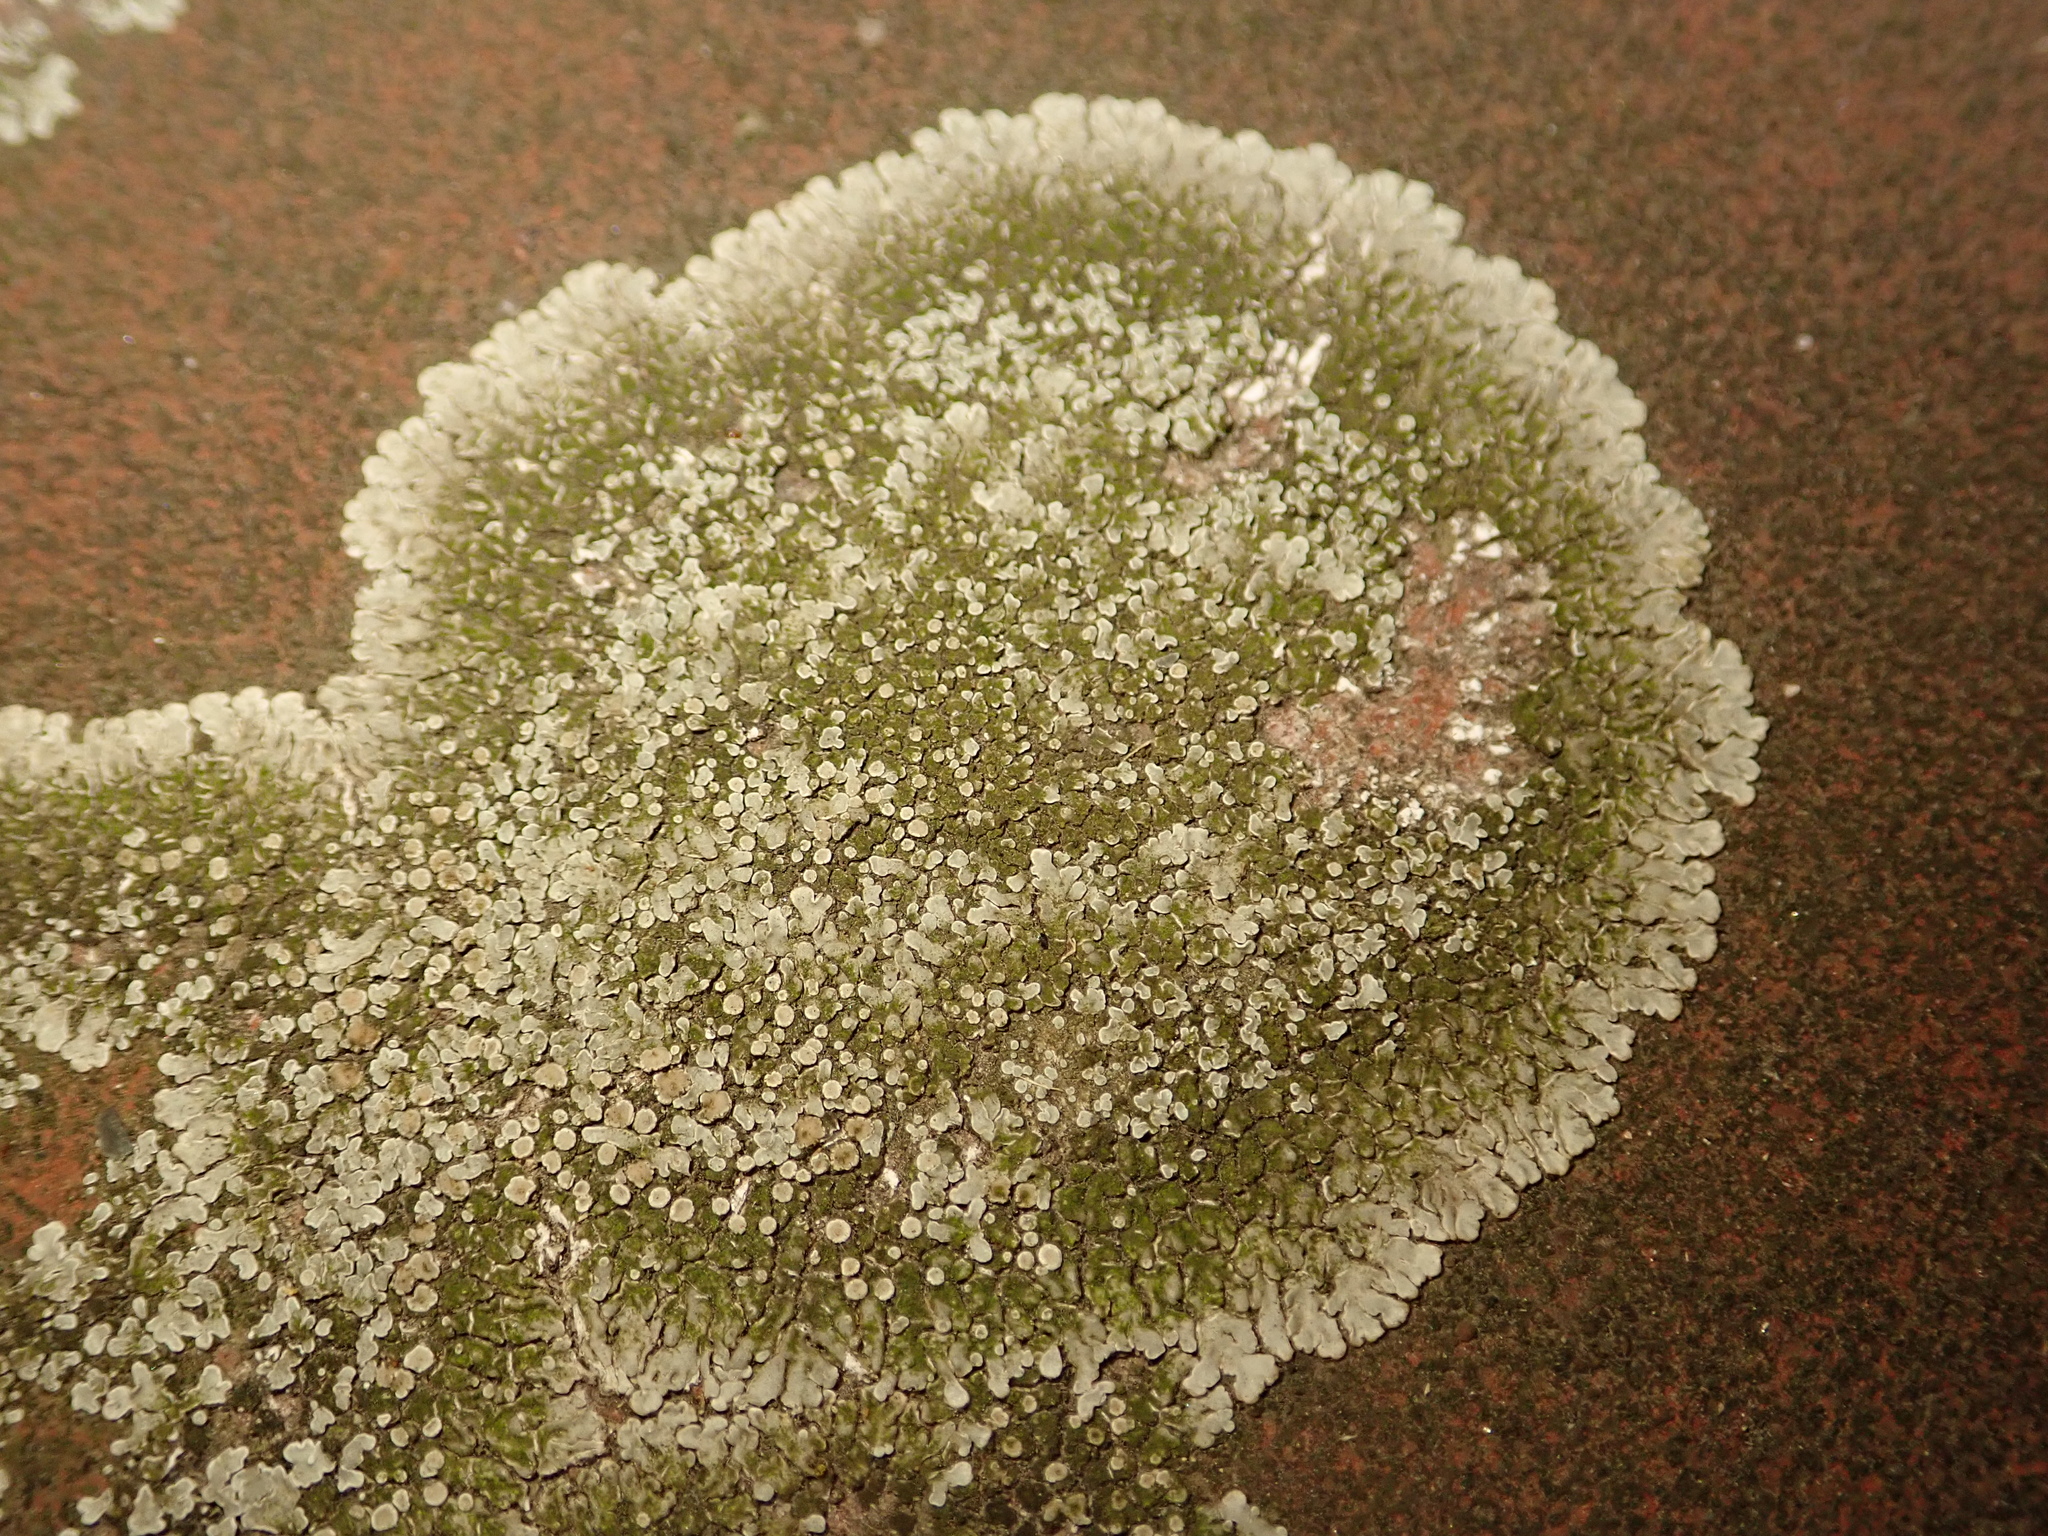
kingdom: Fungi
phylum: Ascomycota
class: Lecanoromycetes
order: Lecanorales
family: Lecanoraceae
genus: Protoparmeliopsis
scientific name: Protoparmeliopsis muralis
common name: Stonewall rim lichen
